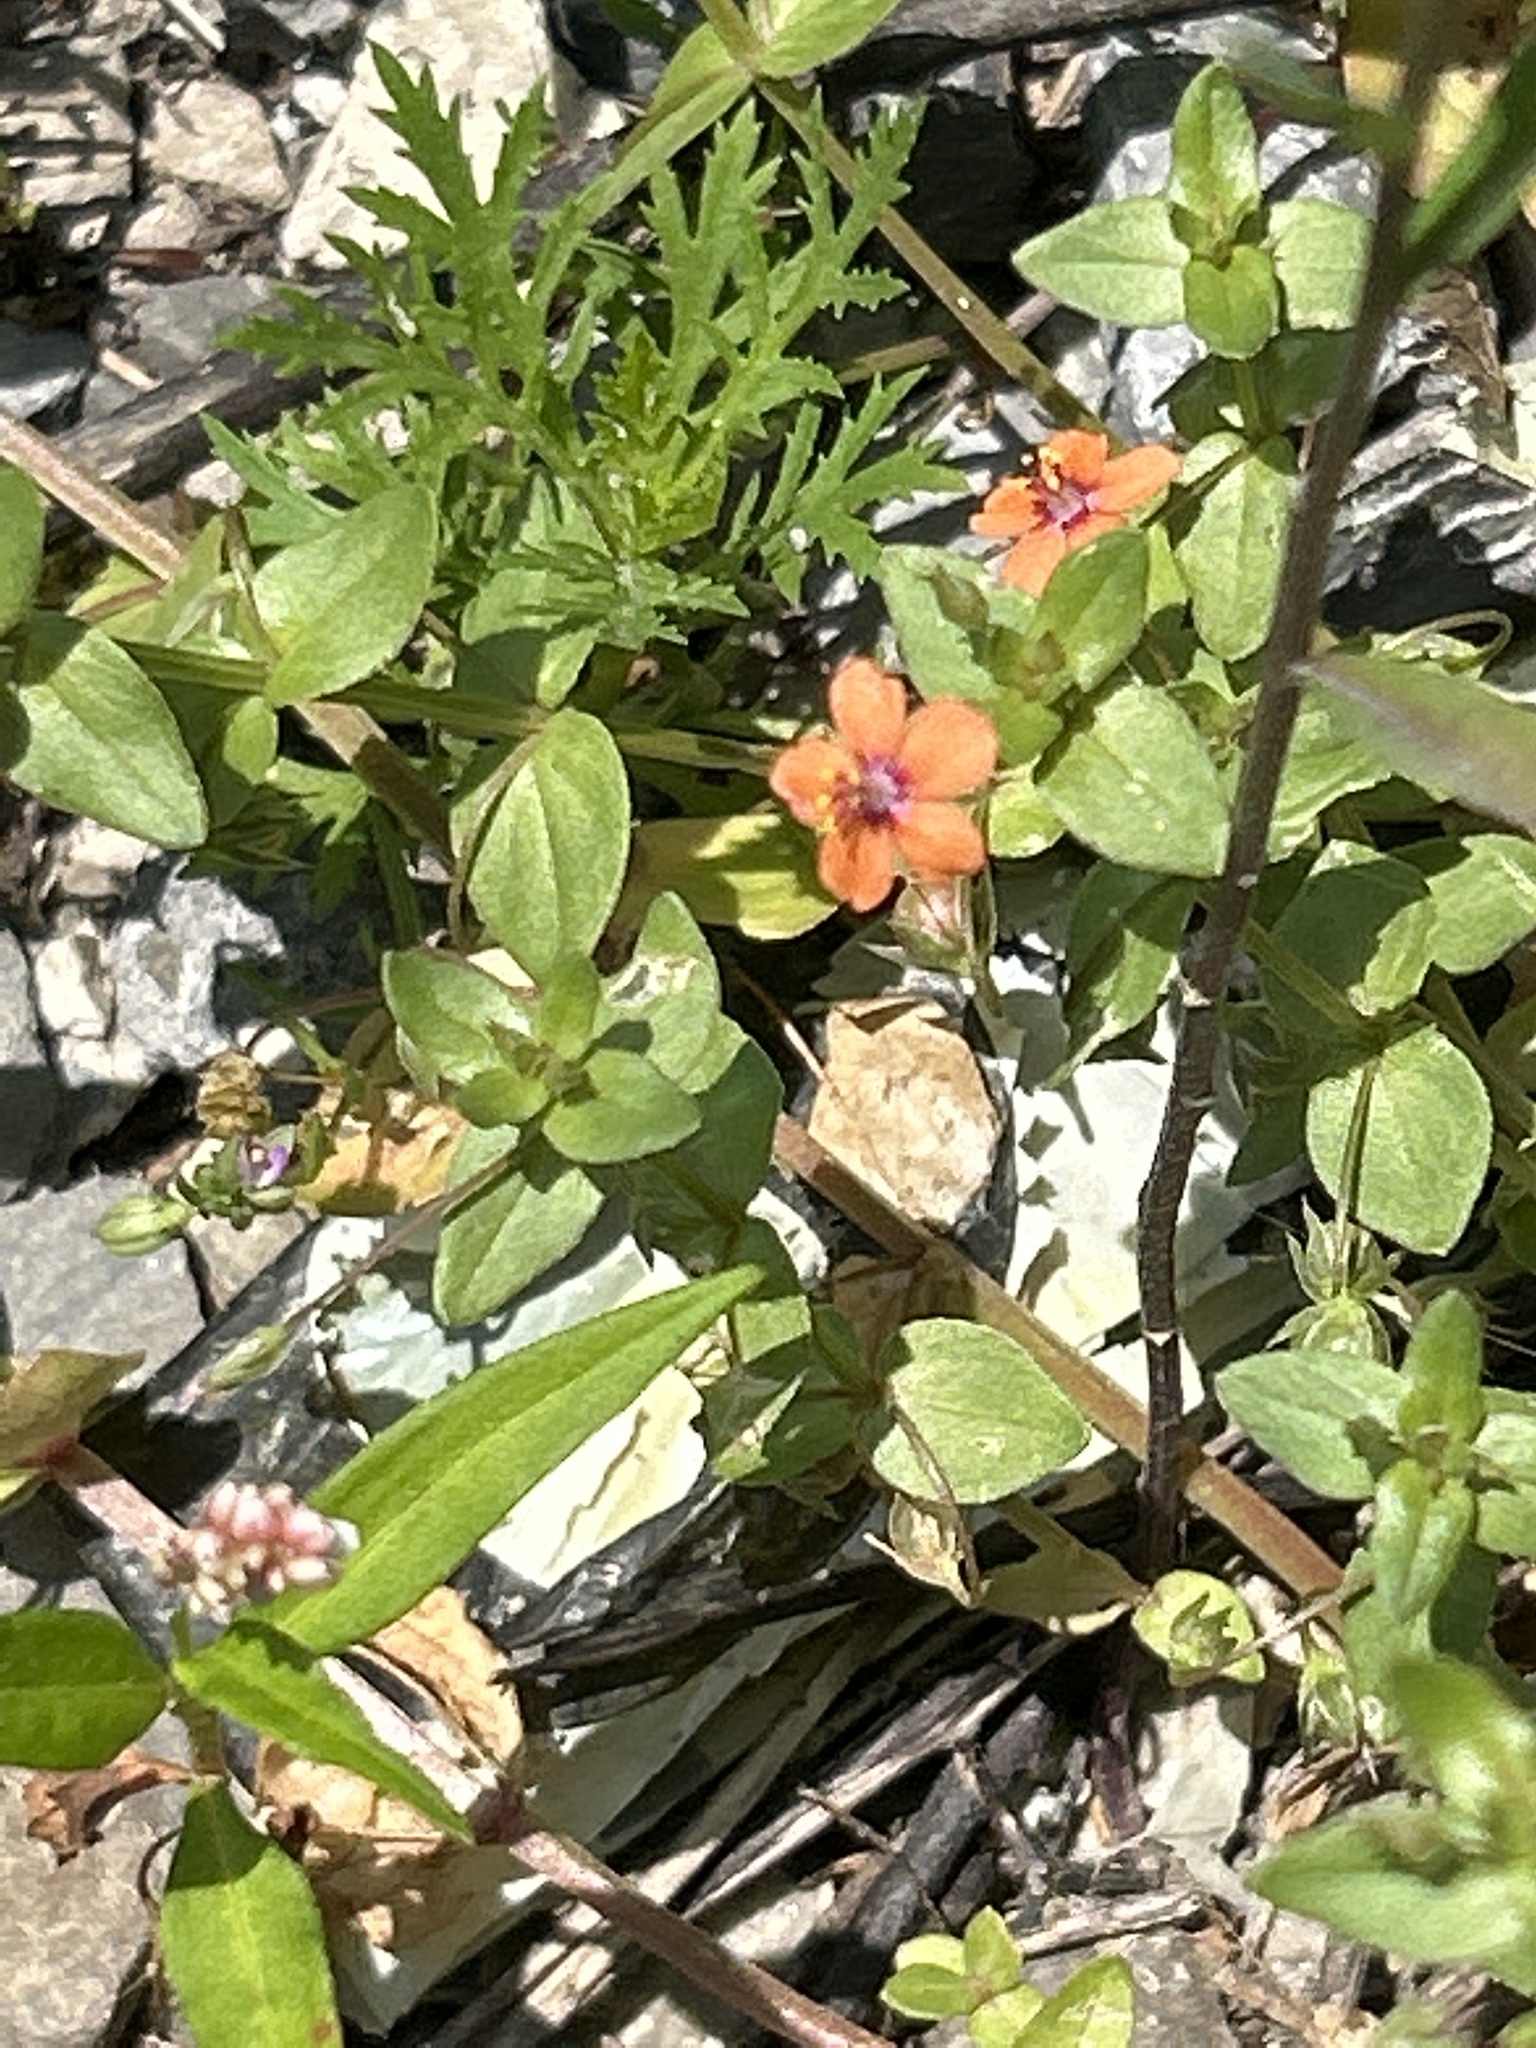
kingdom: Plantae
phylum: Tracheophyta
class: Magnoliopsida
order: Ericales
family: Primulaceae
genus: Lysimachia
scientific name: Lysimachia arvensis
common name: Scarlet pimpernel
